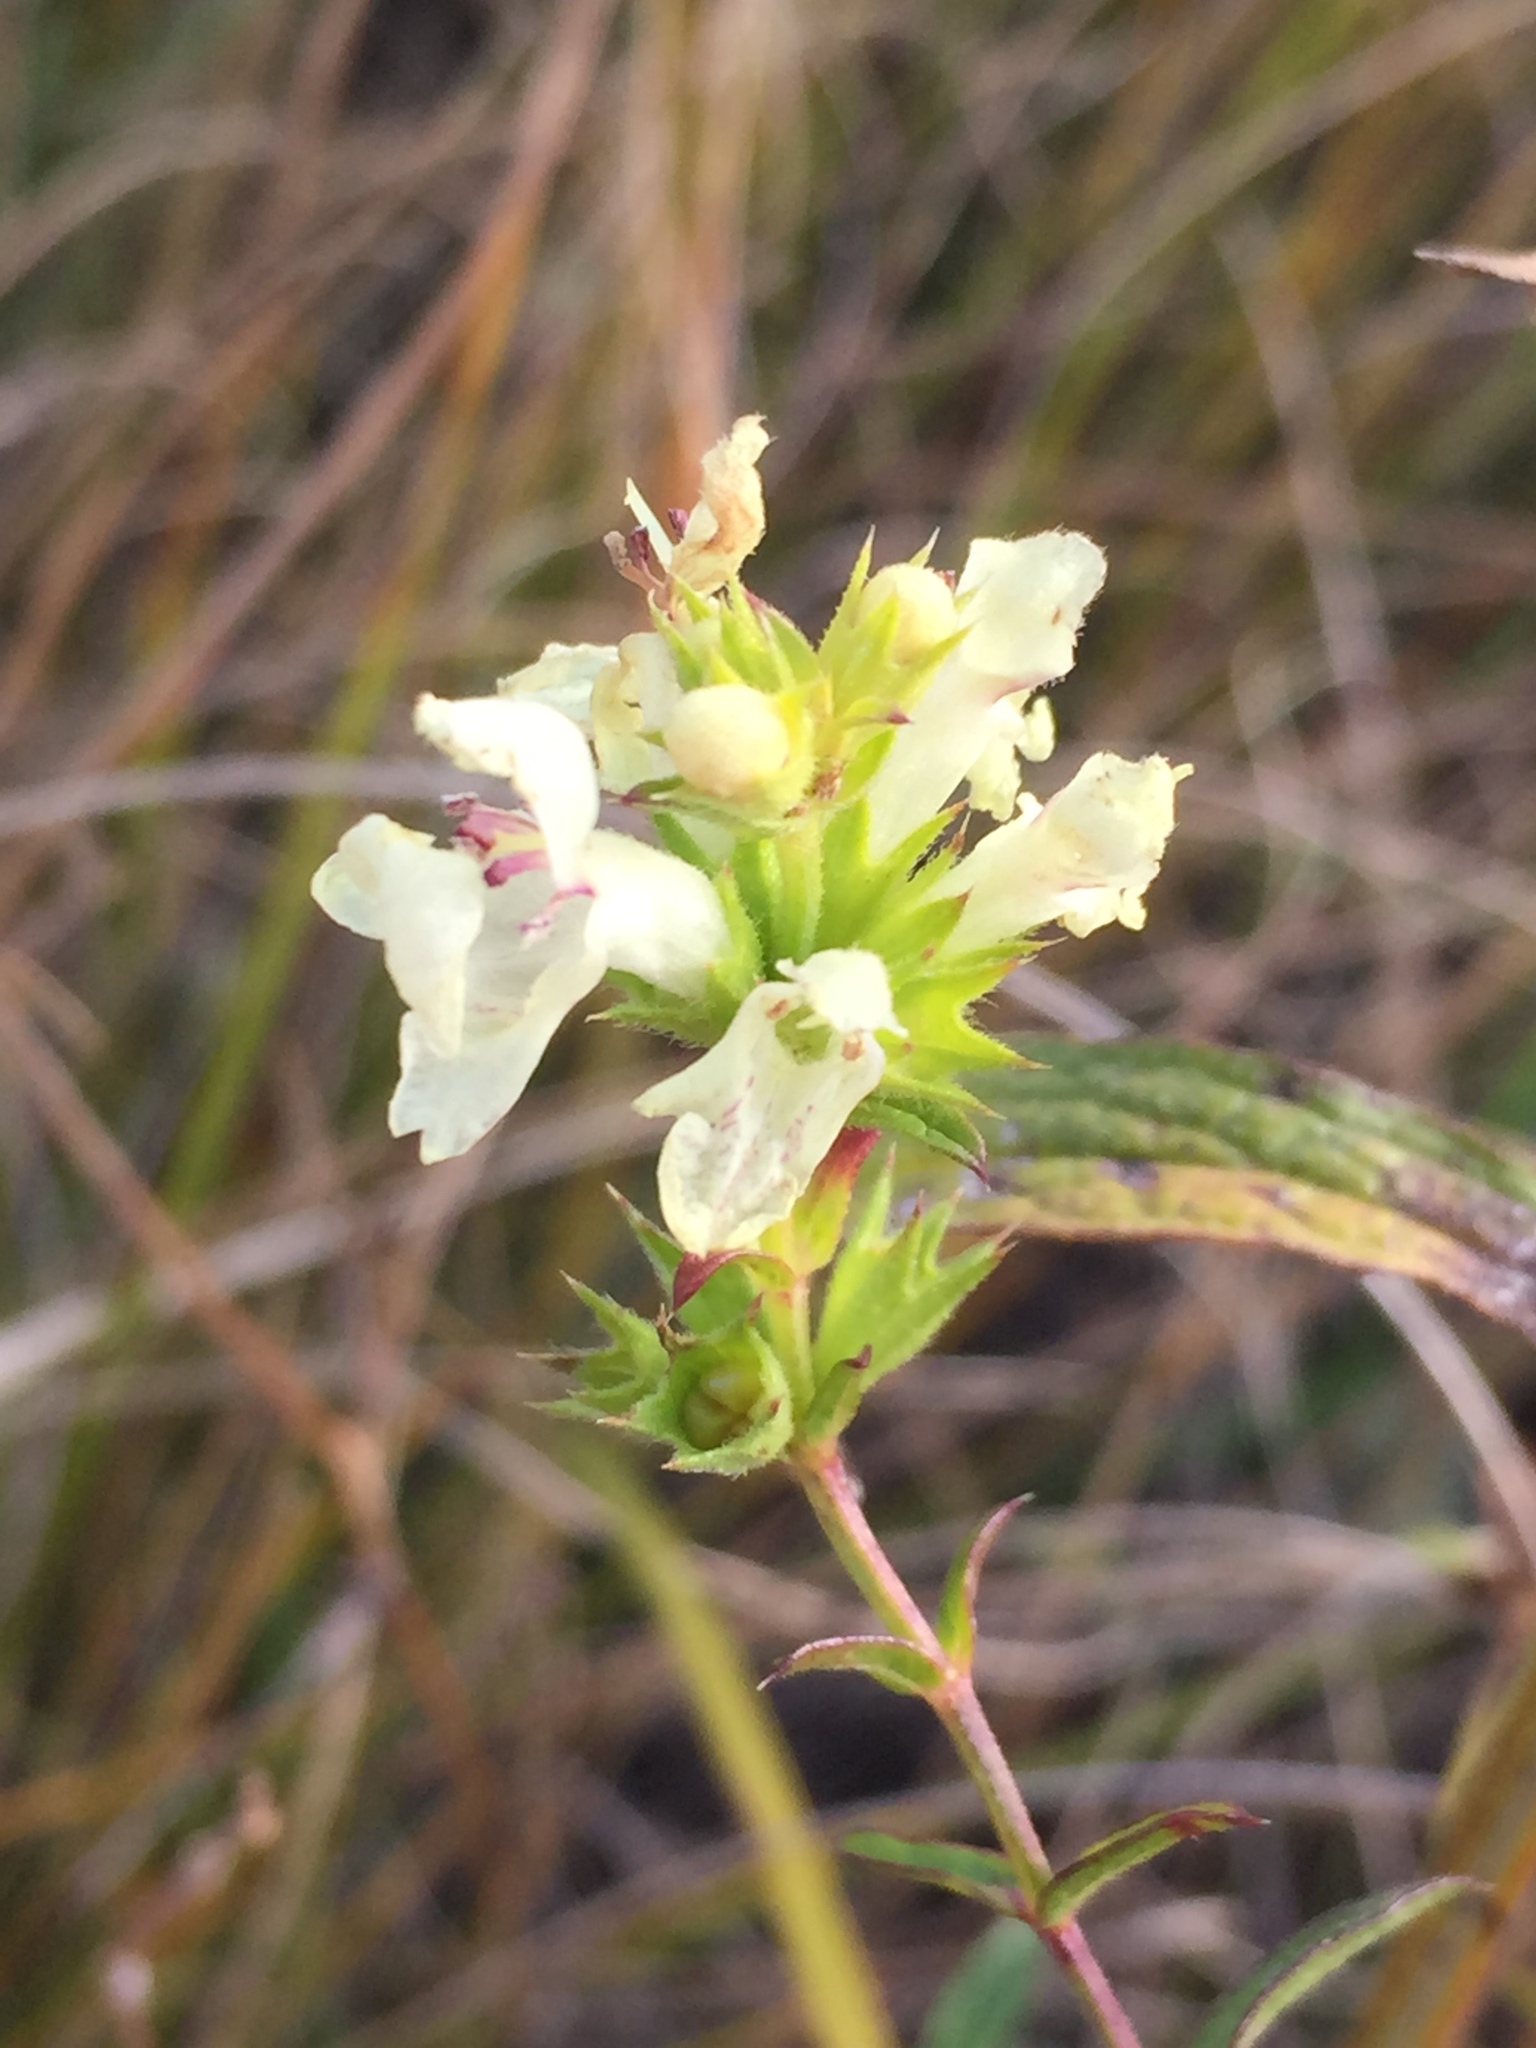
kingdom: Plantae
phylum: Tracheophyta
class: Magnoliopsida
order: Lamiales
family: Lamiaceae
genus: Stachys
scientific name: Stachys recta
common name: Perennial yellow-woundwort
